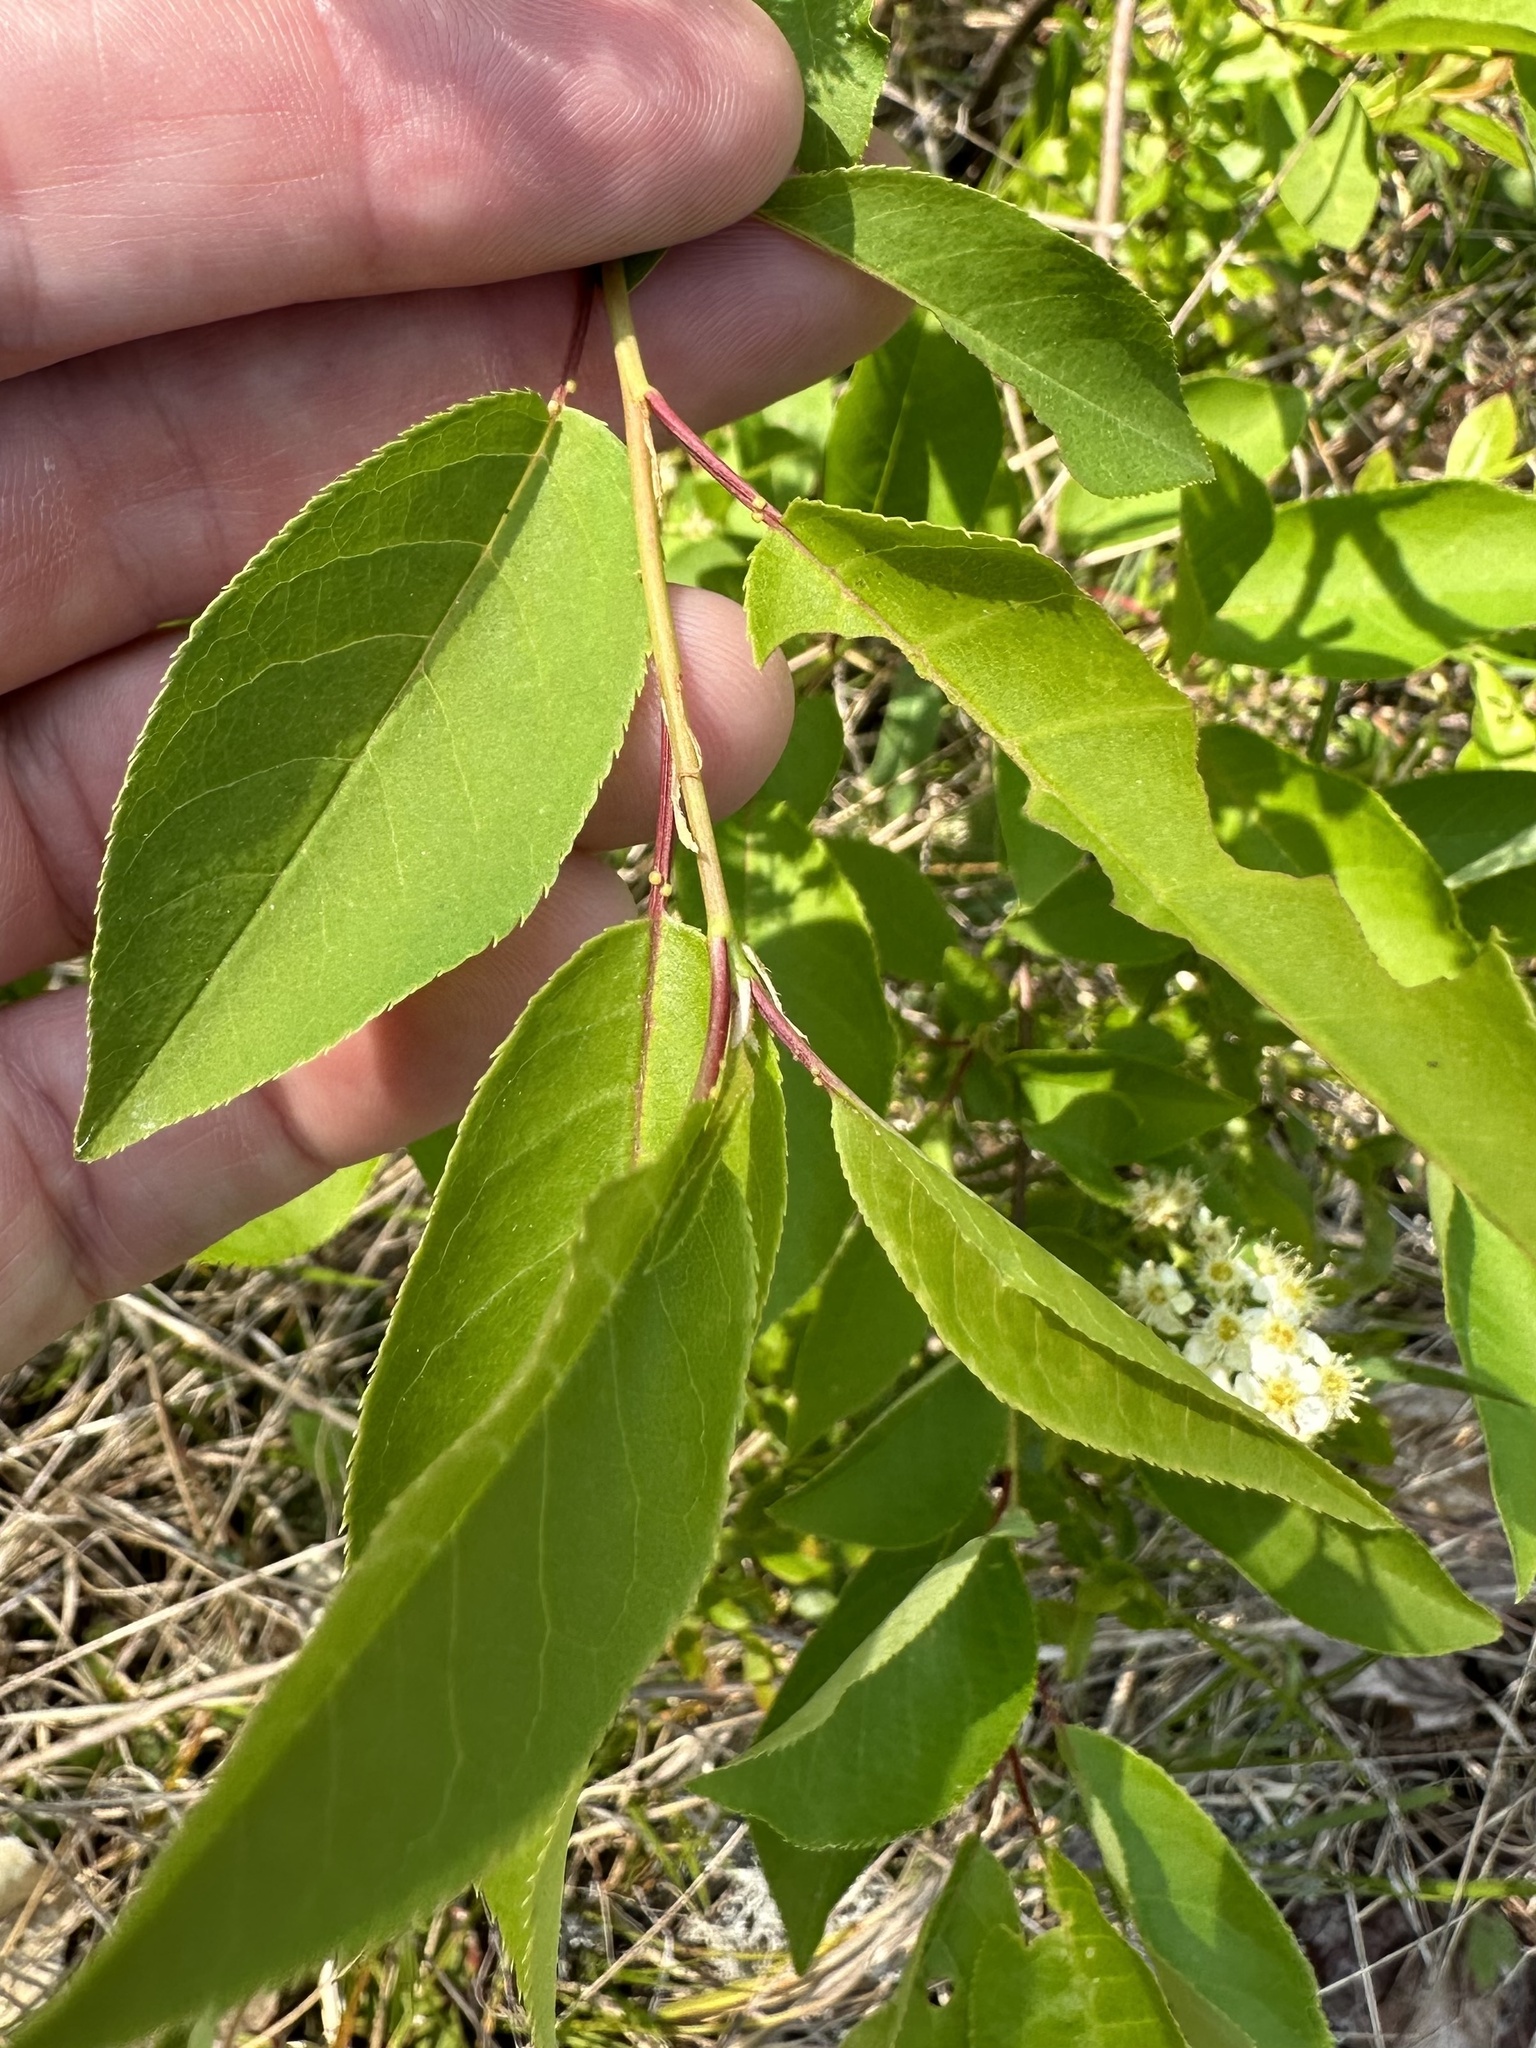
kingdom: Plantae
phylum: Tracheophyta
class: Magnoliopsida
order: Rosales
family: Rosaceae
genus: Prunus
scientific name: Prunus virginiana
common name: Chokecherry
